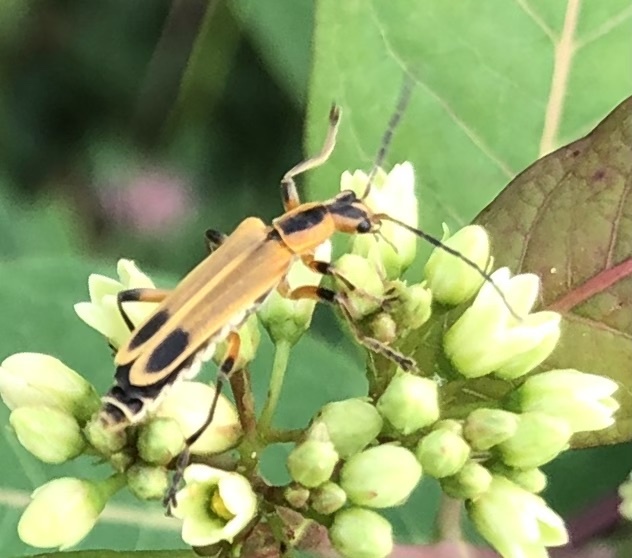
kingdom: Animalia
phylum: Arthropoda
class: Insecta
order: Coleoptera
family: Cantharidae
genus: Chauliognathus
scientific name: Chauliognathus marginatus
